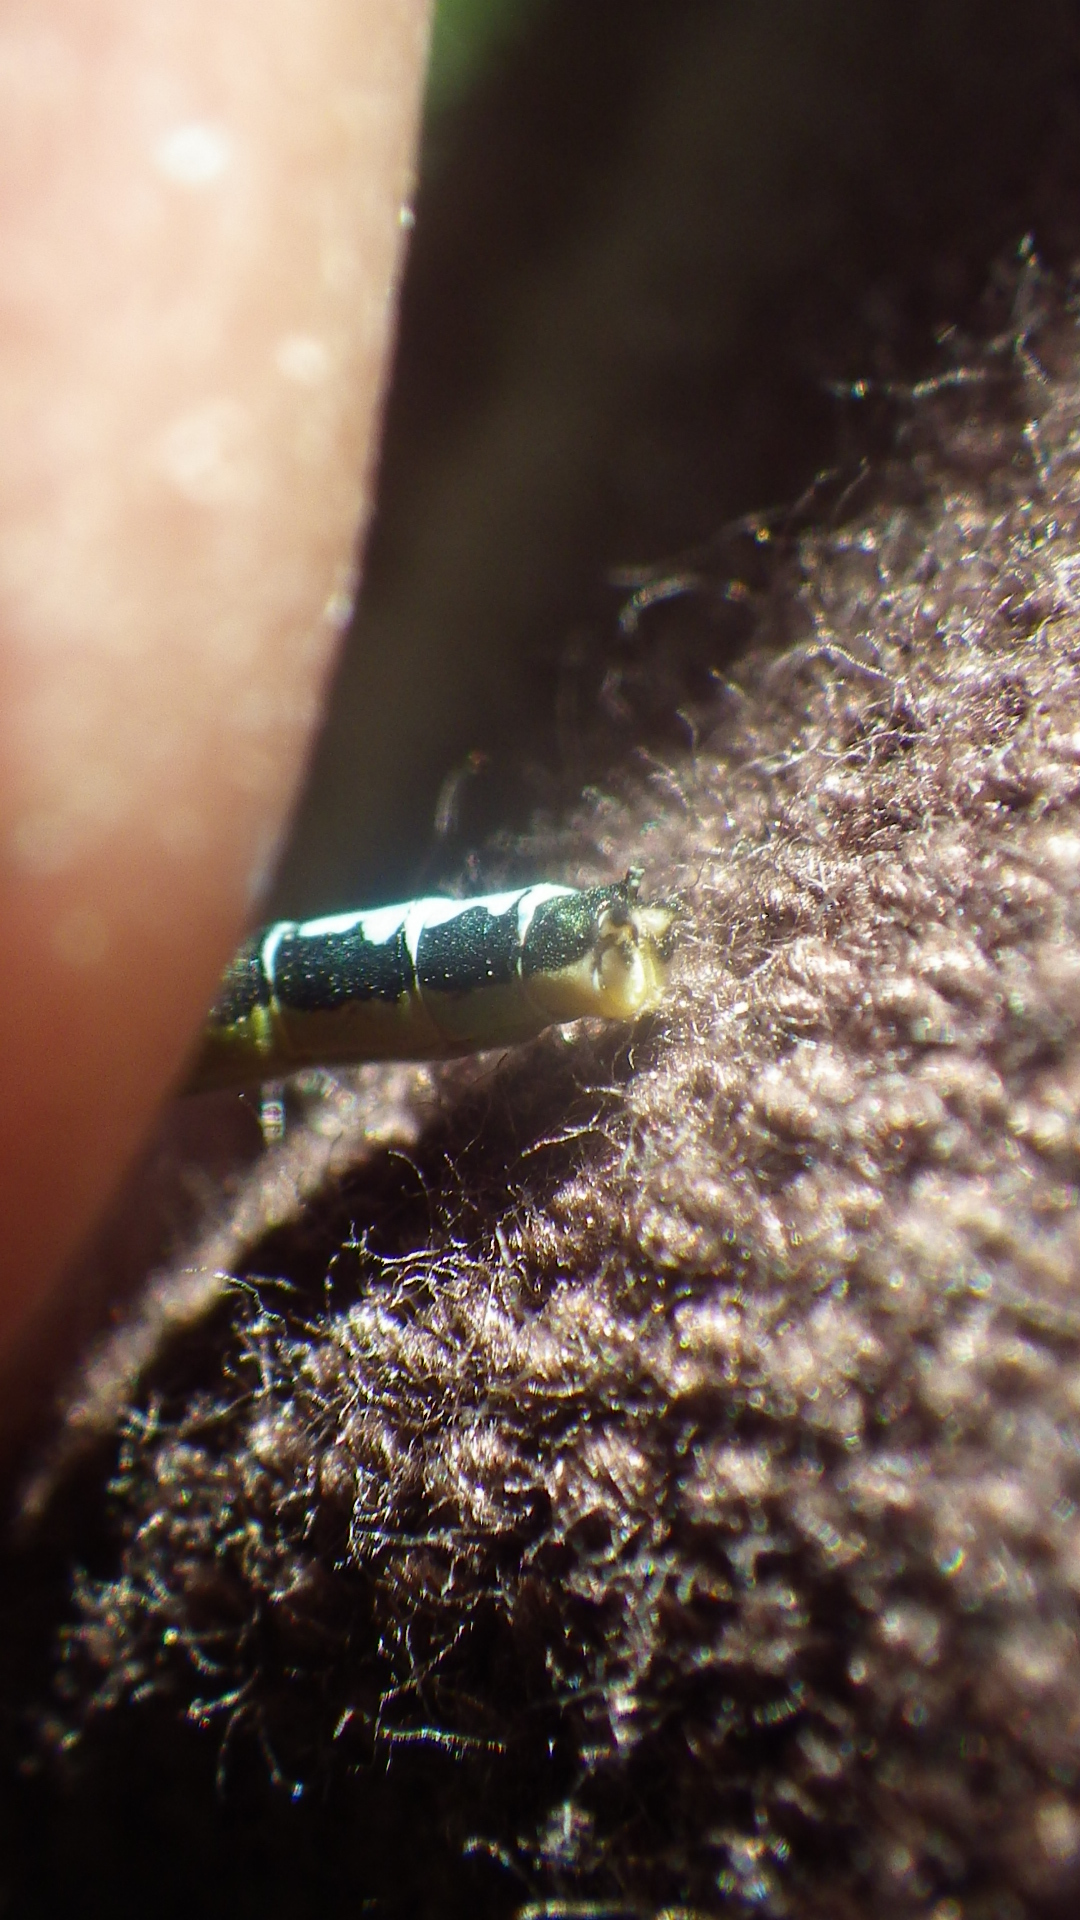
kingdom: Animalia
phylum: Arthropoda
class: Insecta
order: Odonata
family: Coenagrionidae
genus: Ischnura
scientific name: Ischnura gemina
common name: San francisco forktail
